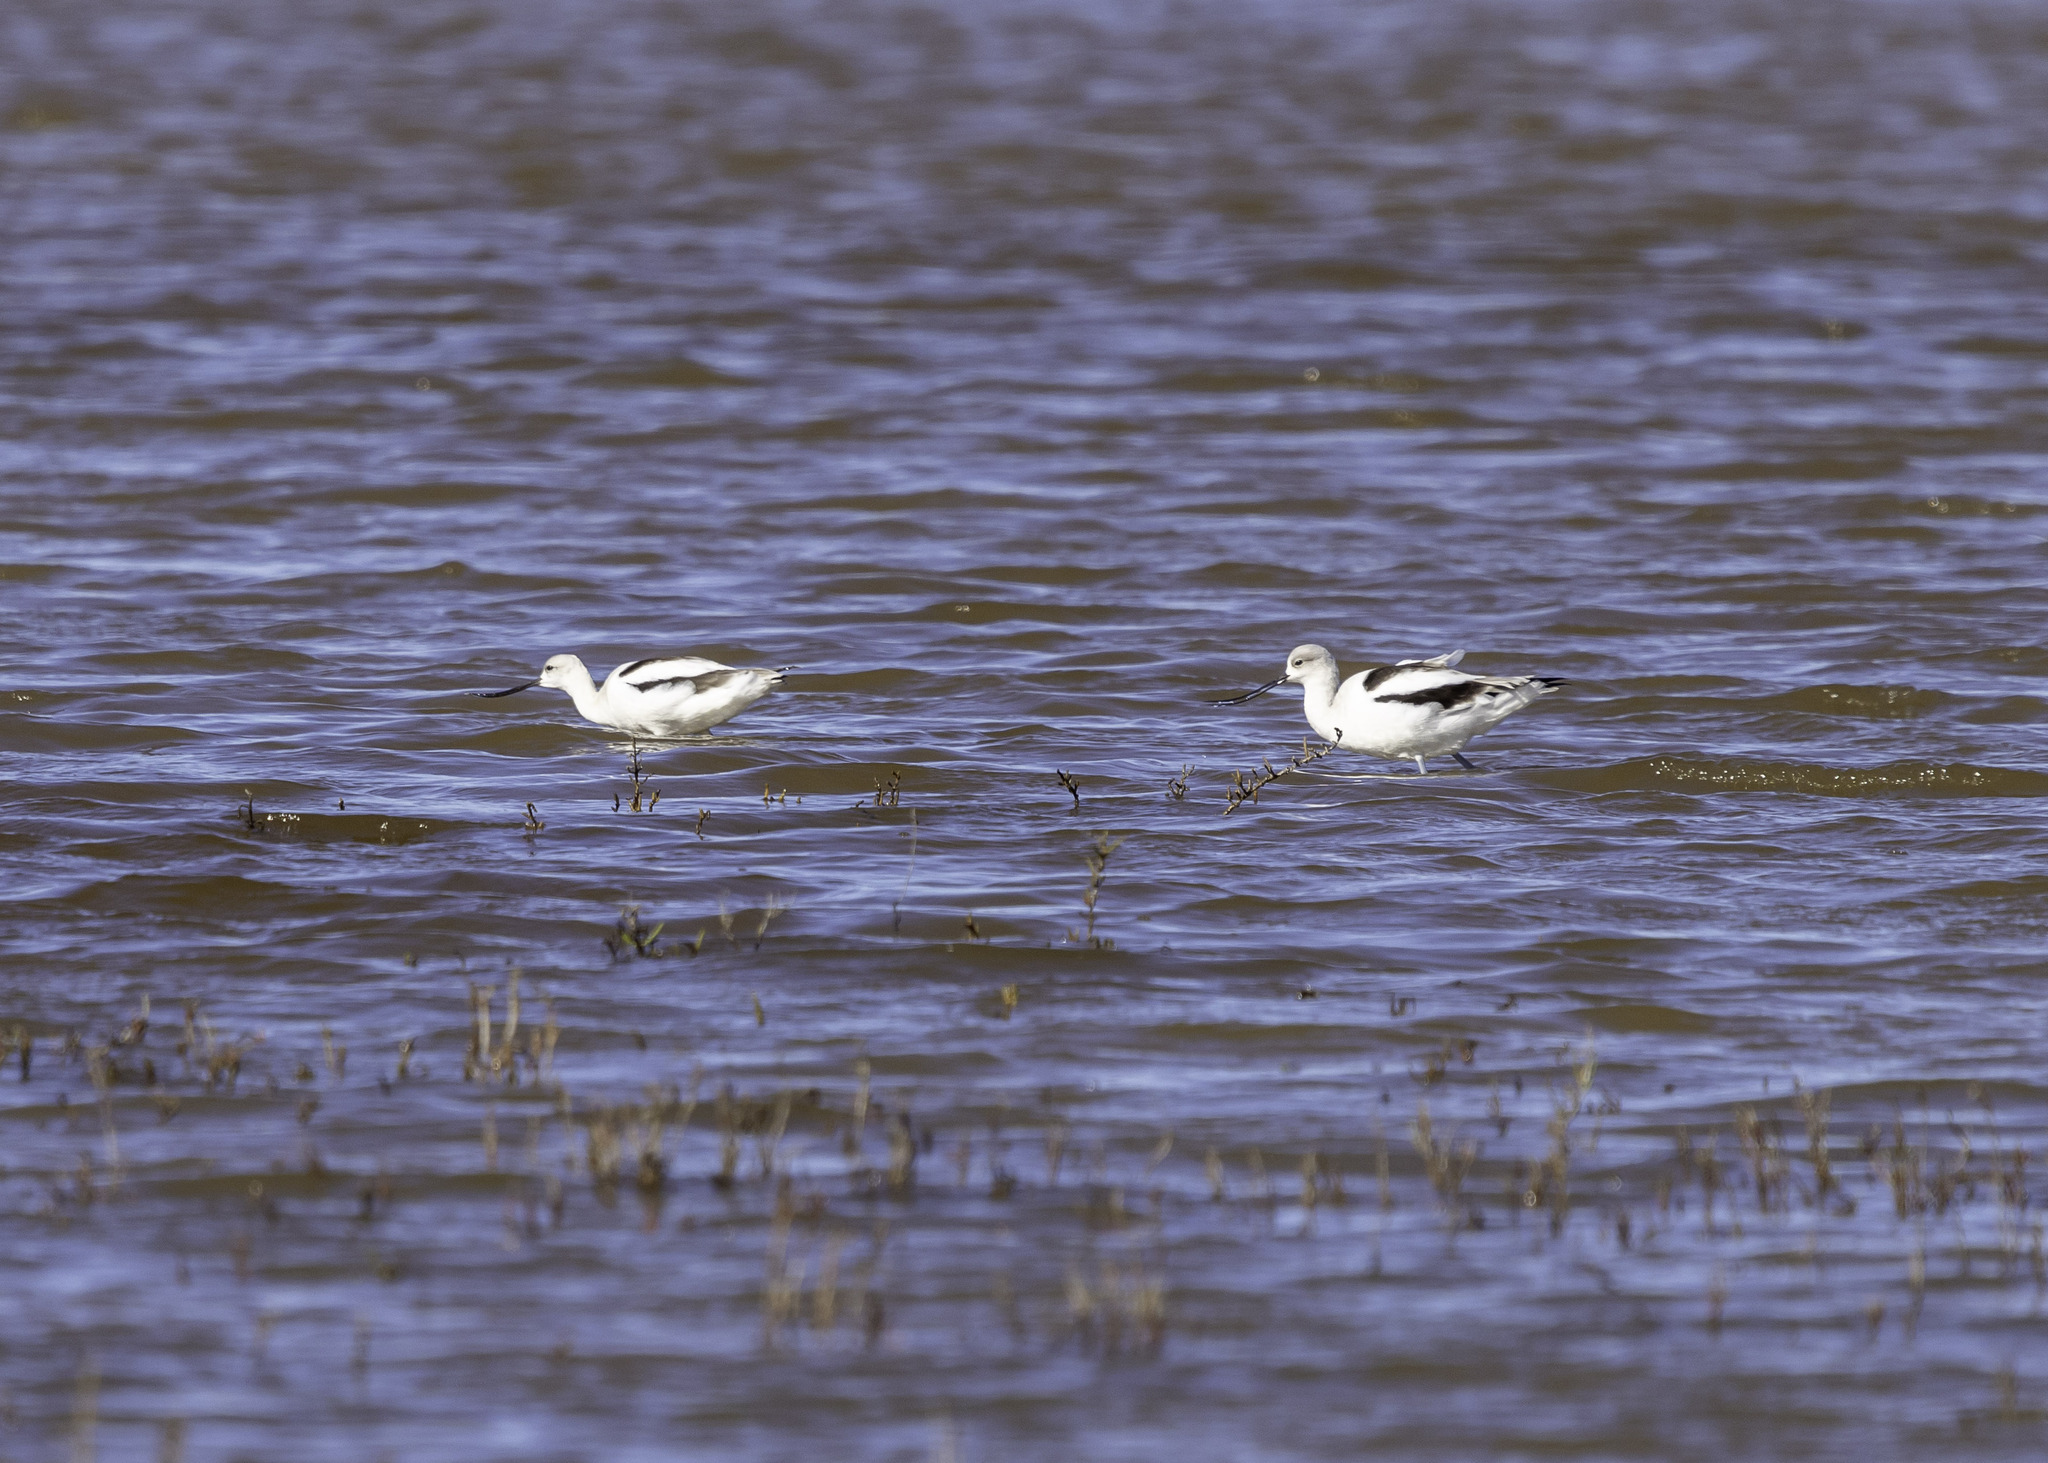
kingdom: Animalia
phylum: Chordata
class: Aves
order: Charadriiformes
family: Recurvirostridae
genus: Recurvirostra
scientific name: Recurvirostra americana
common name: American avocet
